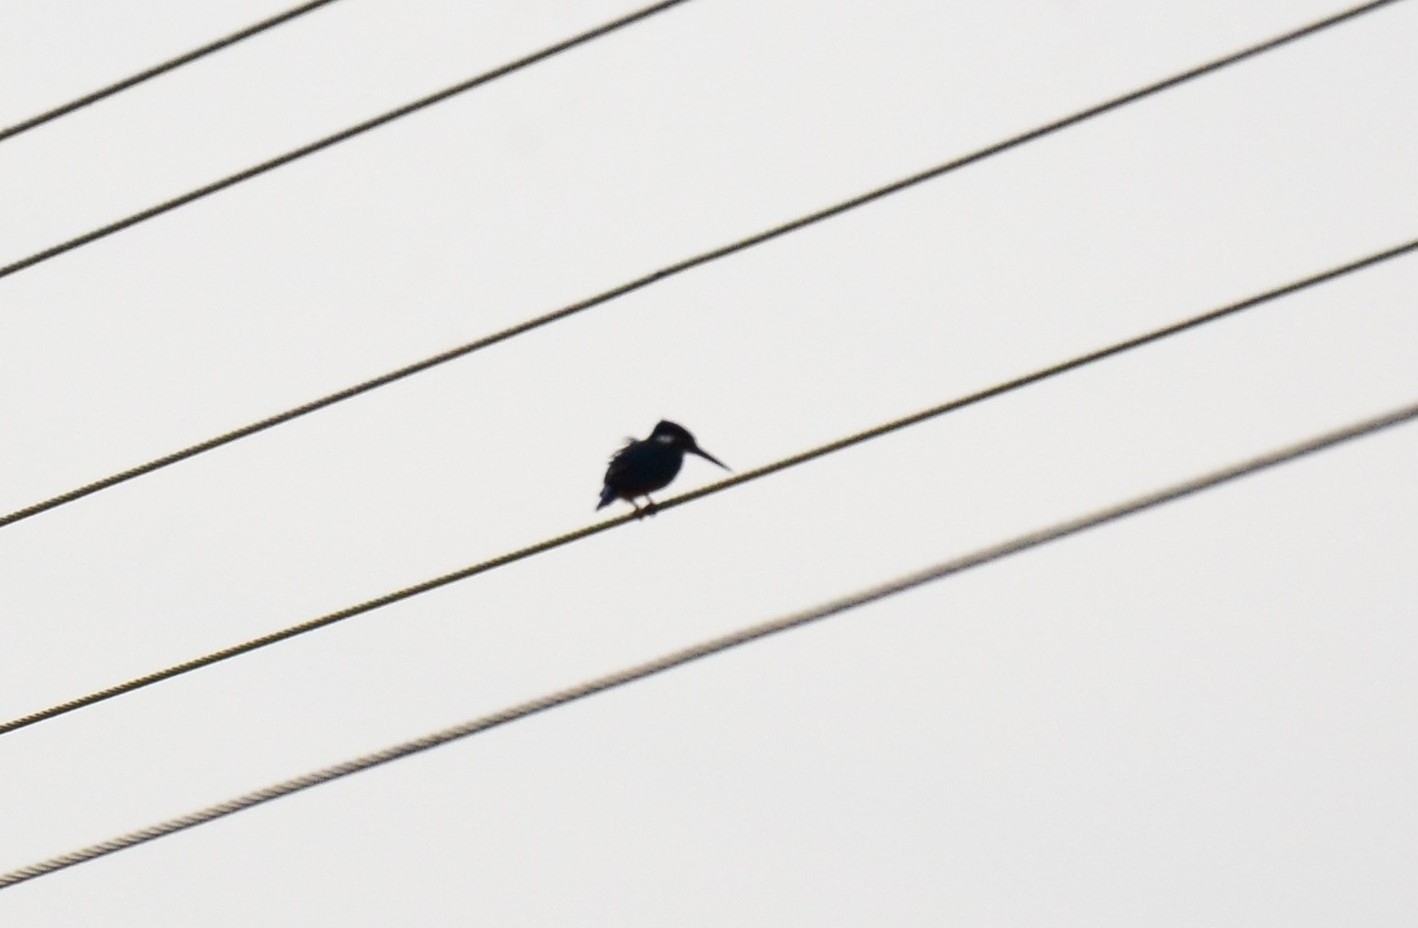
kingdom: Animalia
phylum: Chordata
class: Aves
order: Coraciiformes
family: Alcedinidae
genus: Alcedo
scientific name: Alcedo atthis
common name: Common kingfisher
